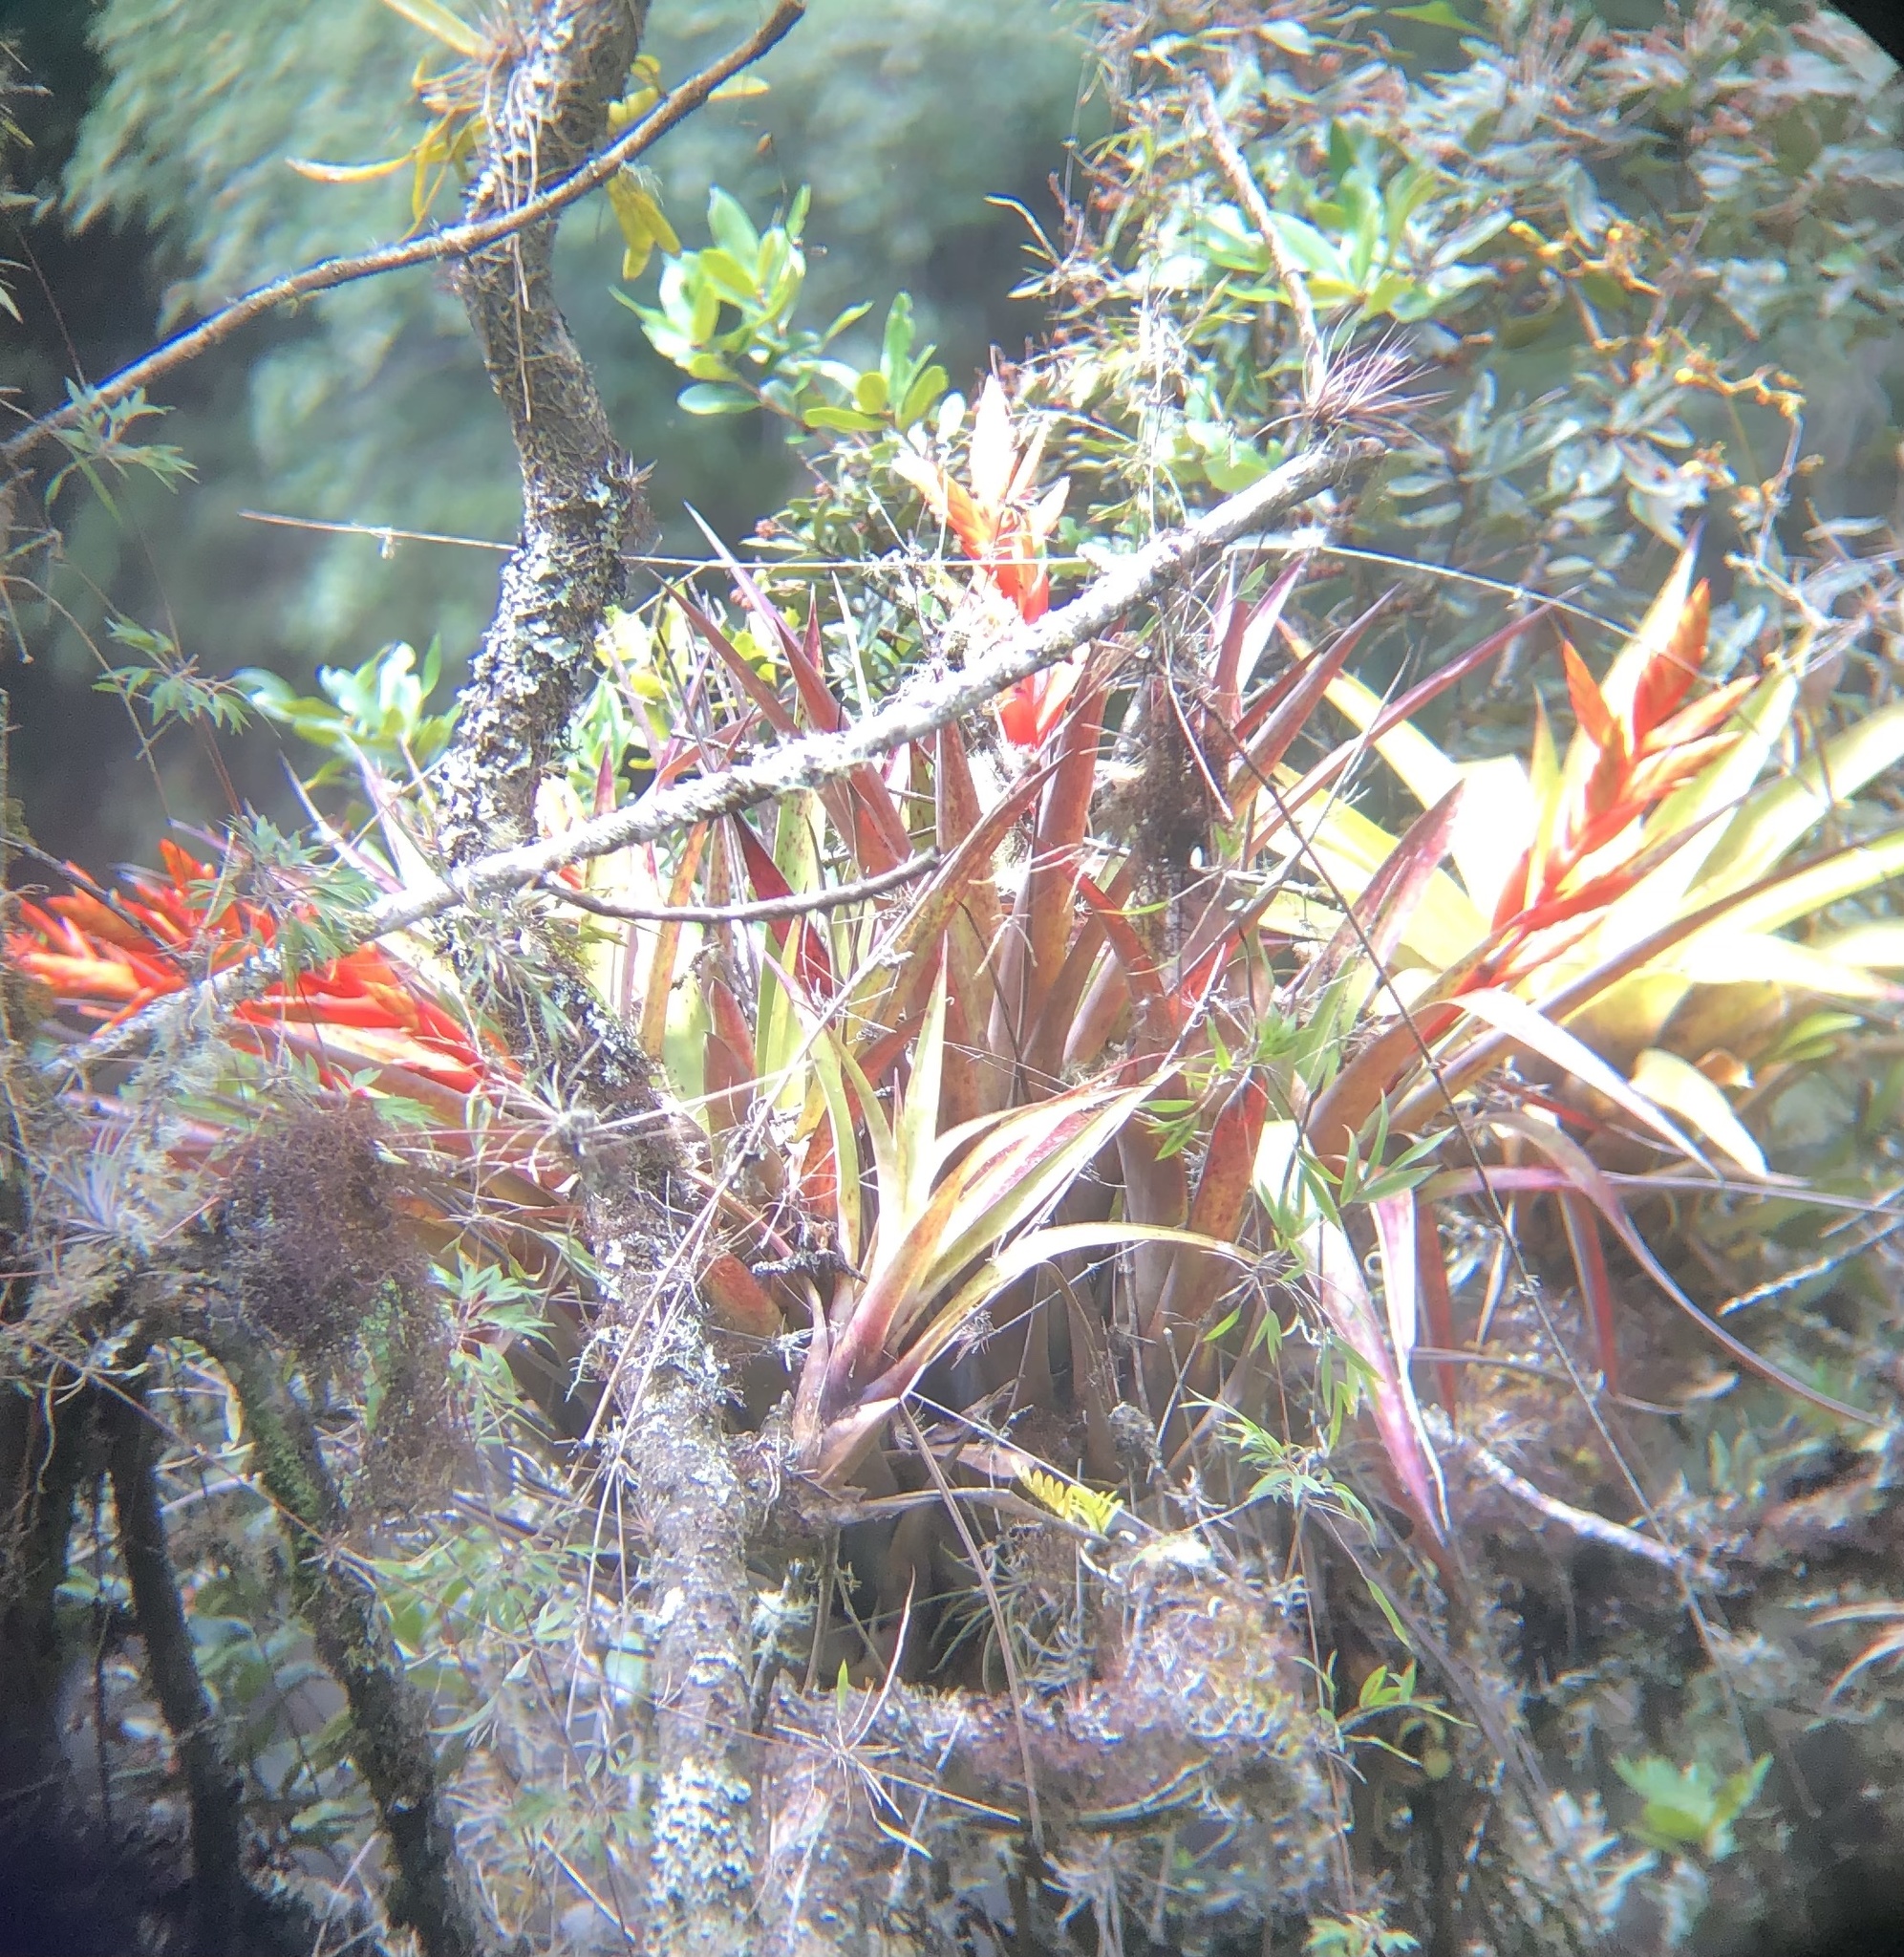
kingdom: Plantae
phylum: Tracheophyta
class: Liliopsida
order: Poales
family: Bromeliaceae
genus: Tillandsia
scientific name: Tillandsia confinis
